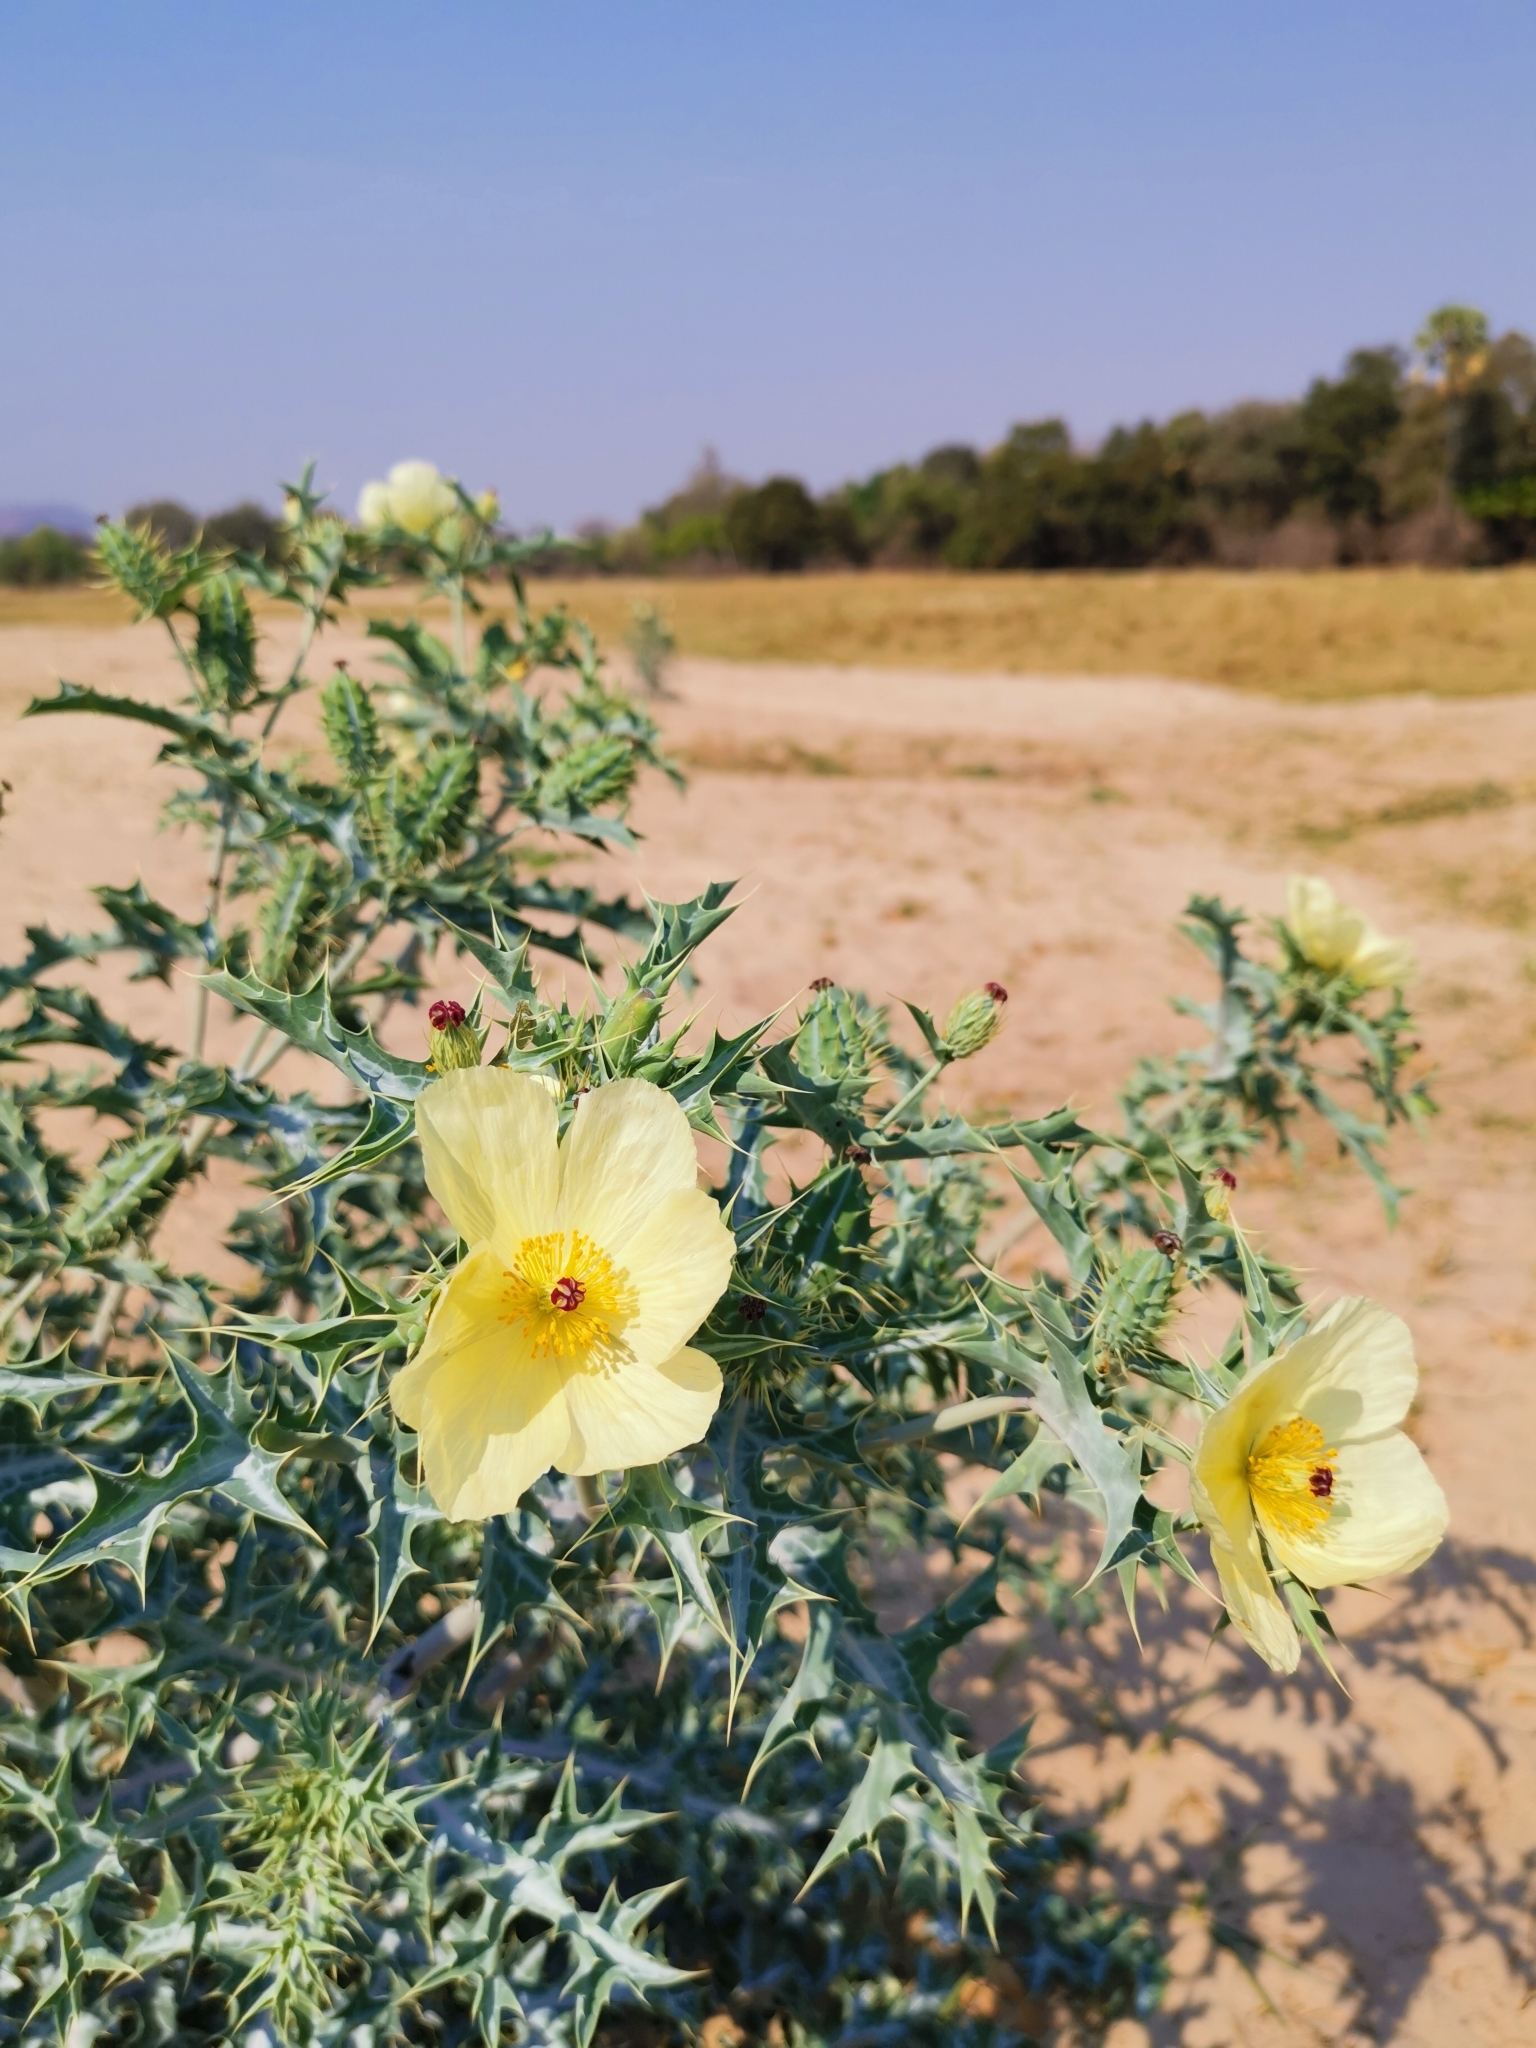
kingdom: Plantae
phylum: Tracheophyta
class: Magnoliopsida
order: Ranunculales
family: Papaveraceae
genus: Argemone
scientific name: Argemone ochroleuca
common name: White-flower mexican-poppy
